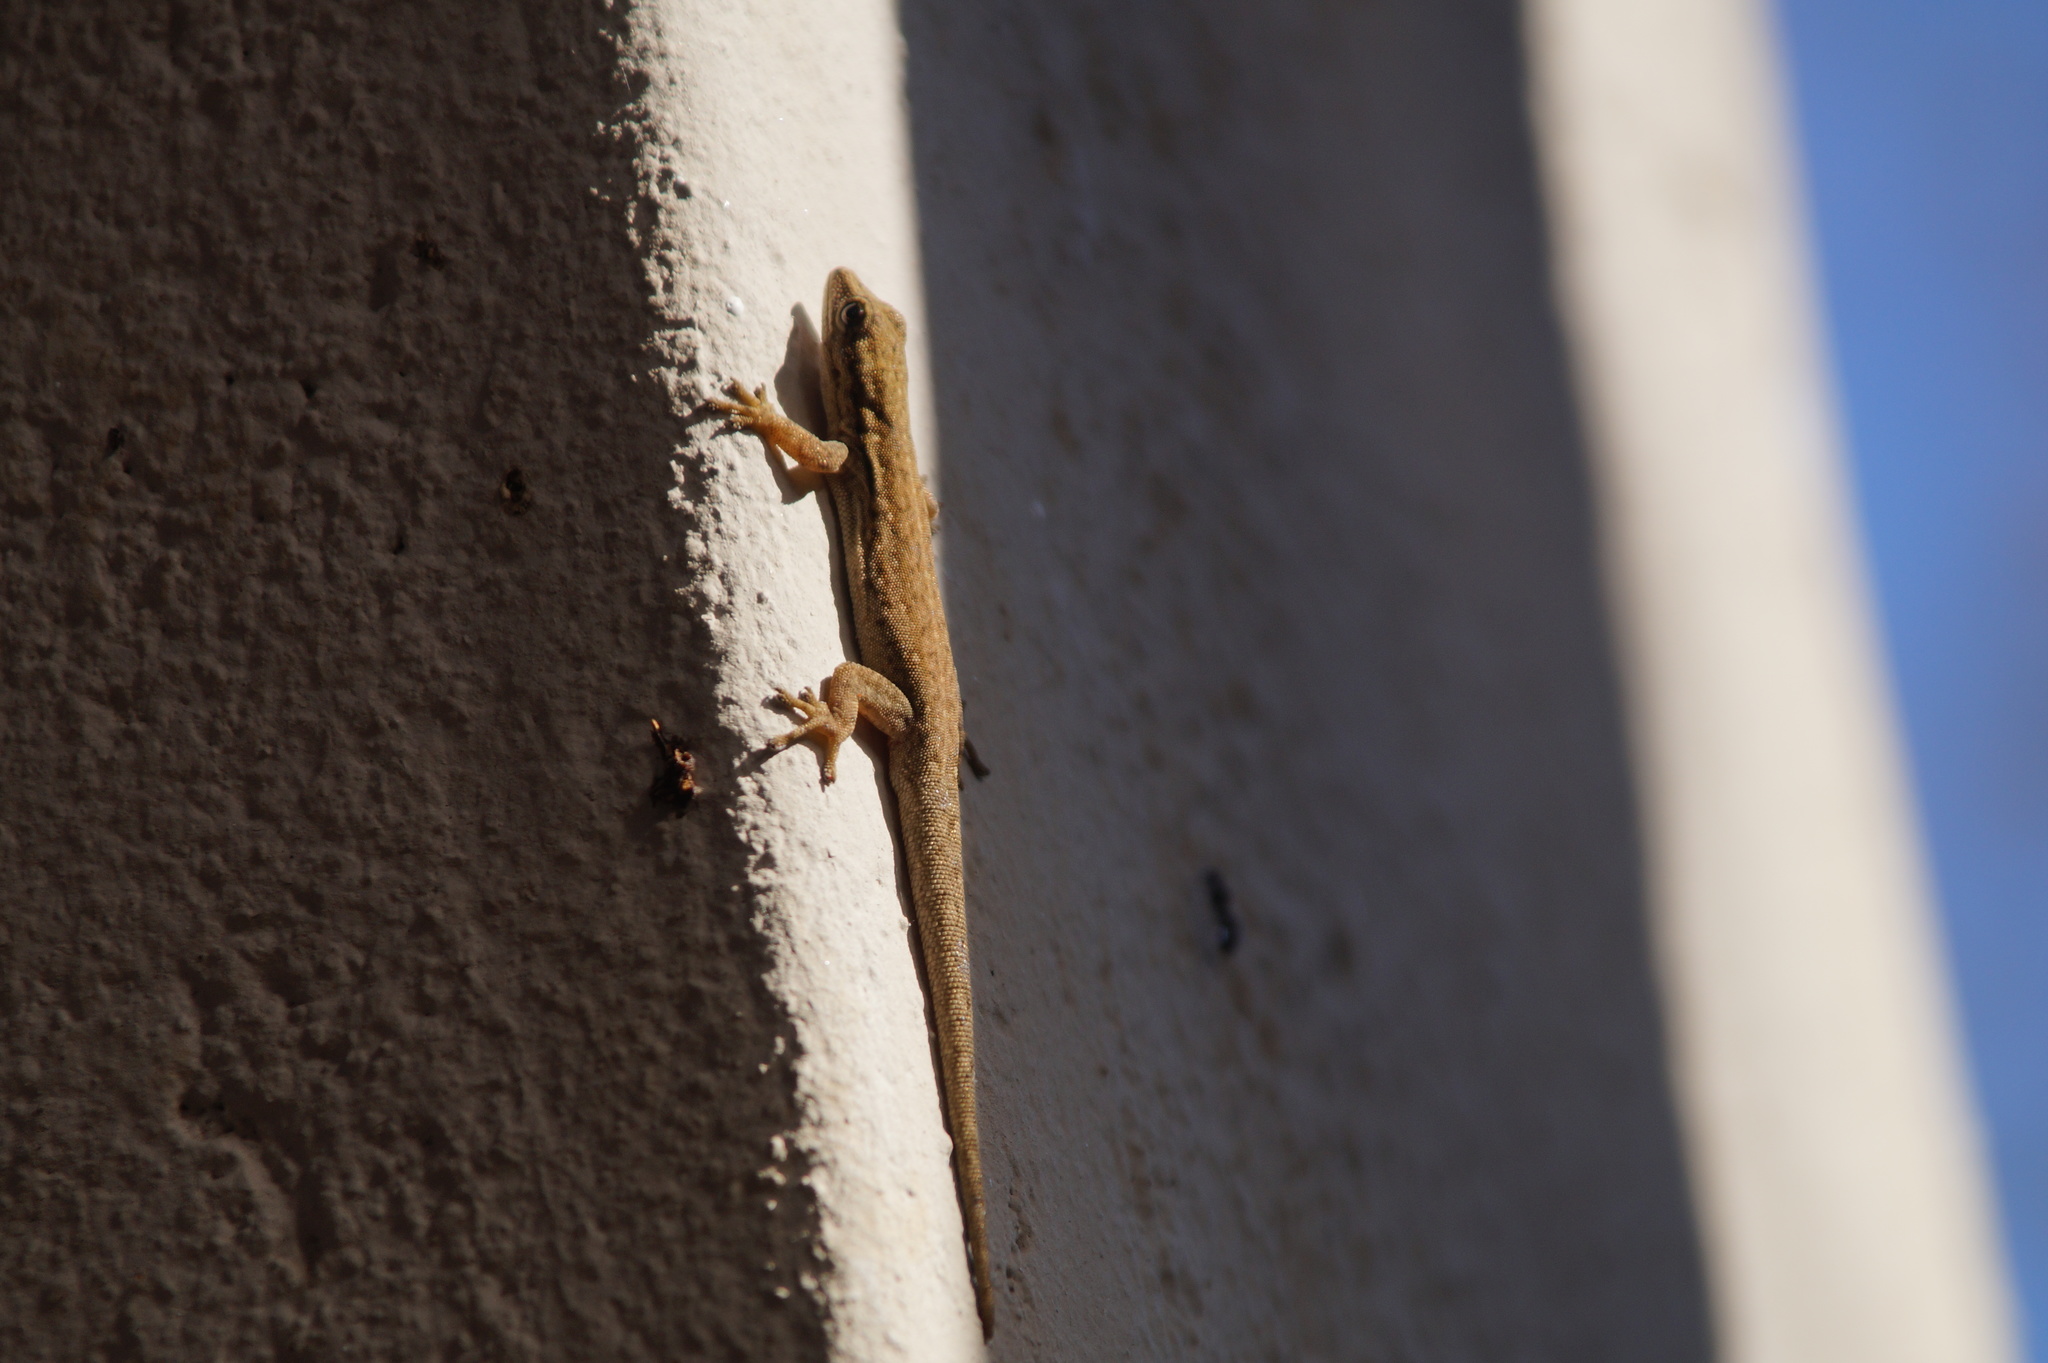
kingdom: Animalia
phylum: Chordata
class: Squamata
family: Gekkonidae
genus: Lygodactylus
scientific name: Lygodactylus capensis
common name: Cape dwarf gecko
